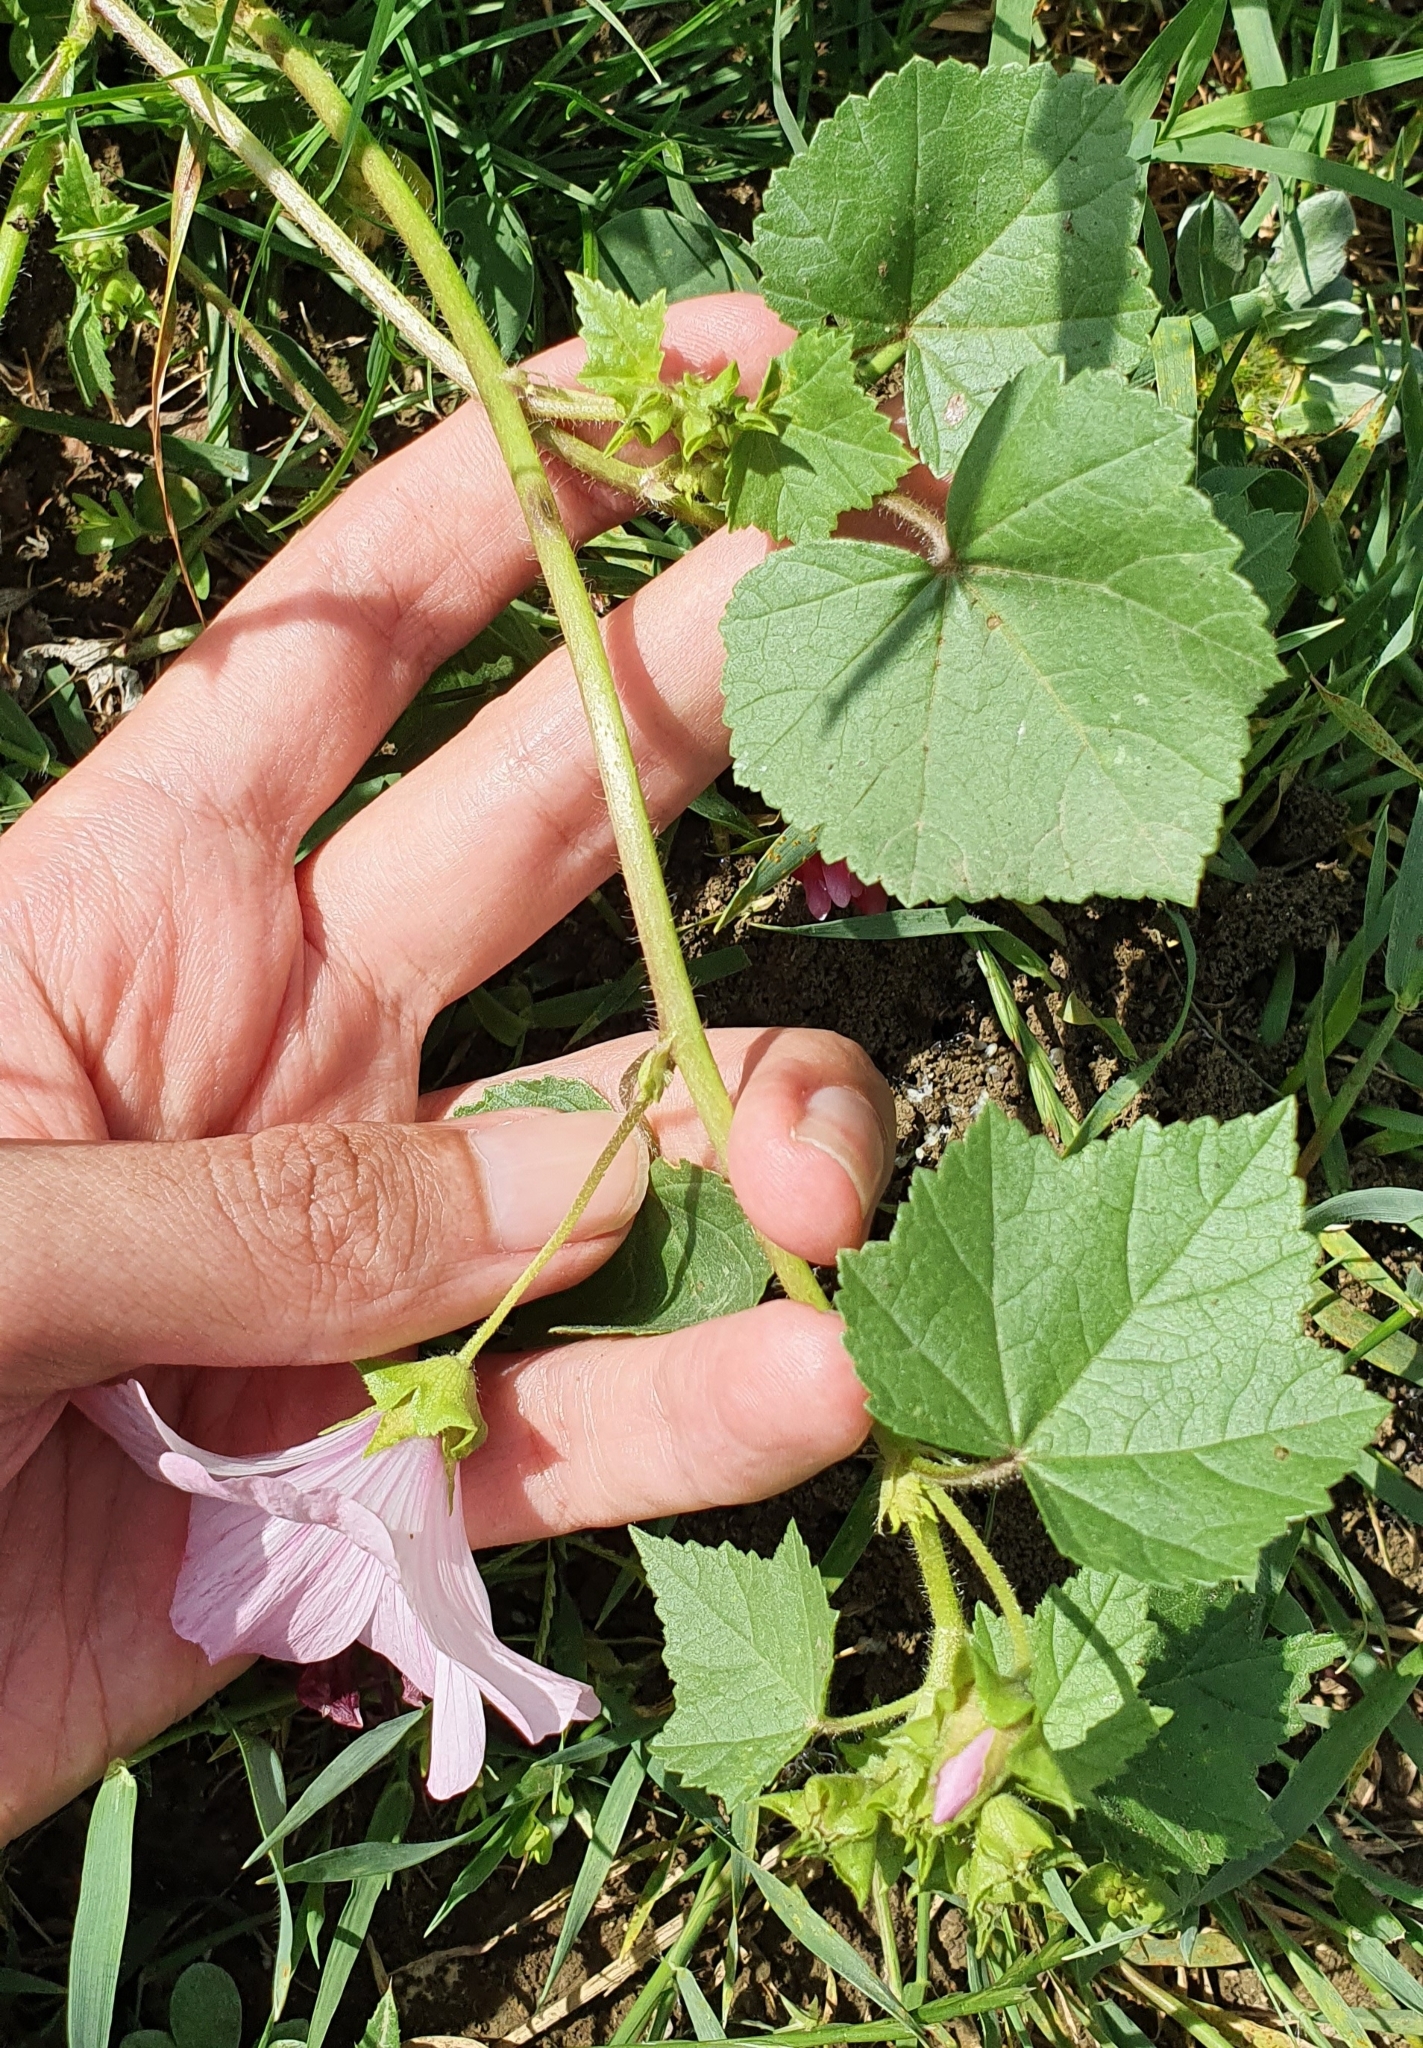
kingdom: Plantae
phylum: Tracheophyta
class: Magnoliopsida
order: Malvales
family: Malvaceae
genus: Malva
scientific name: Malva trimestris
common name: Royal mallow
